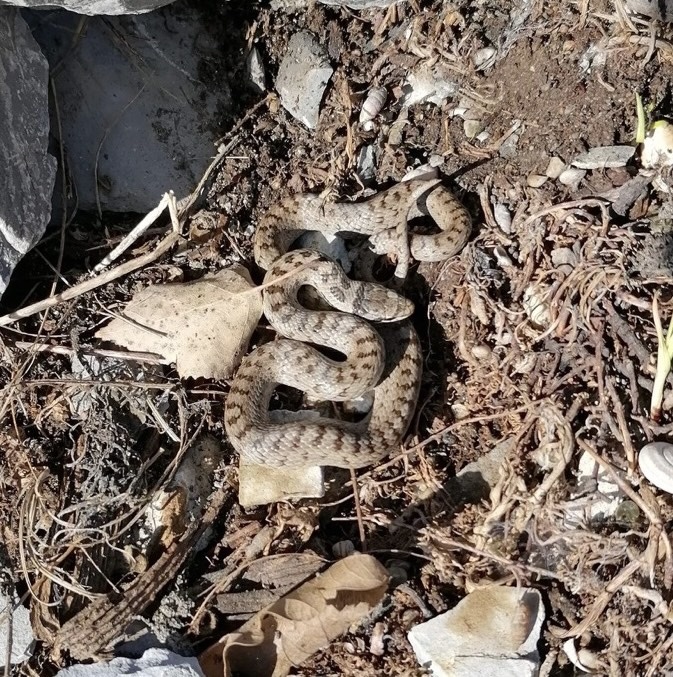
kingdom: Animalia
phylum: Chordata
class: Squamata
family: Colubridae
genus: Coronella
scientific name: Coronella austriaca
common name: Smooth snake
